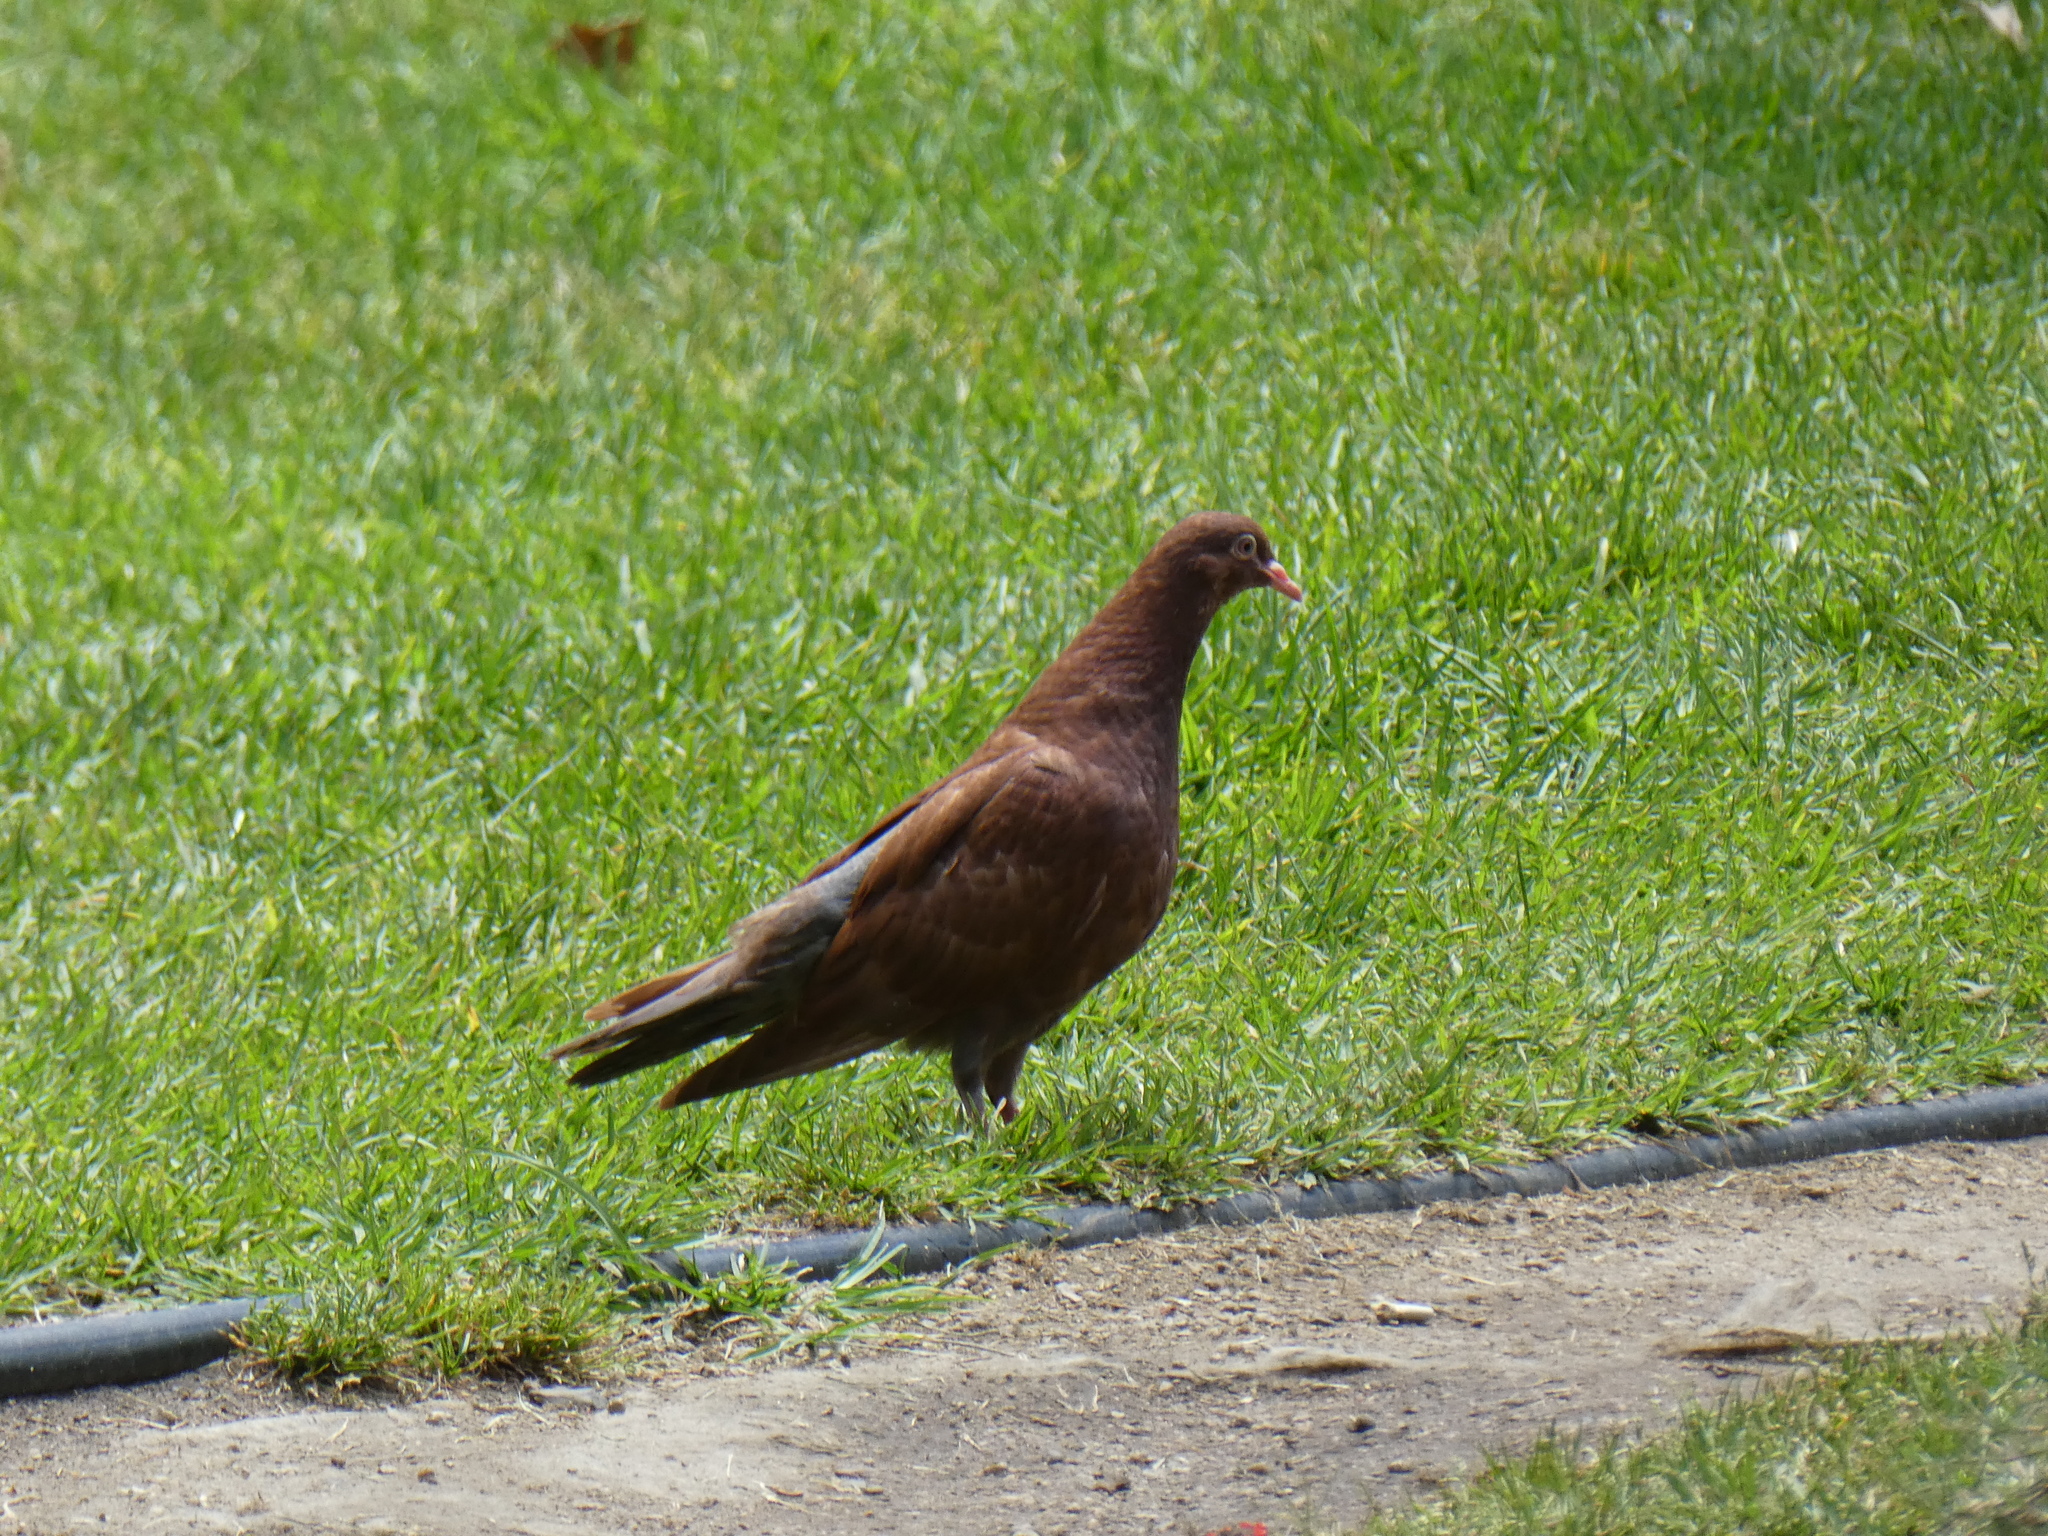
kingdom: Animalia
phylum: Chordata
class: Aves
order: Columbiformes
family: Columbidae
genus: Columba
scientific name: Columba livia
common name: Rock pigeon
